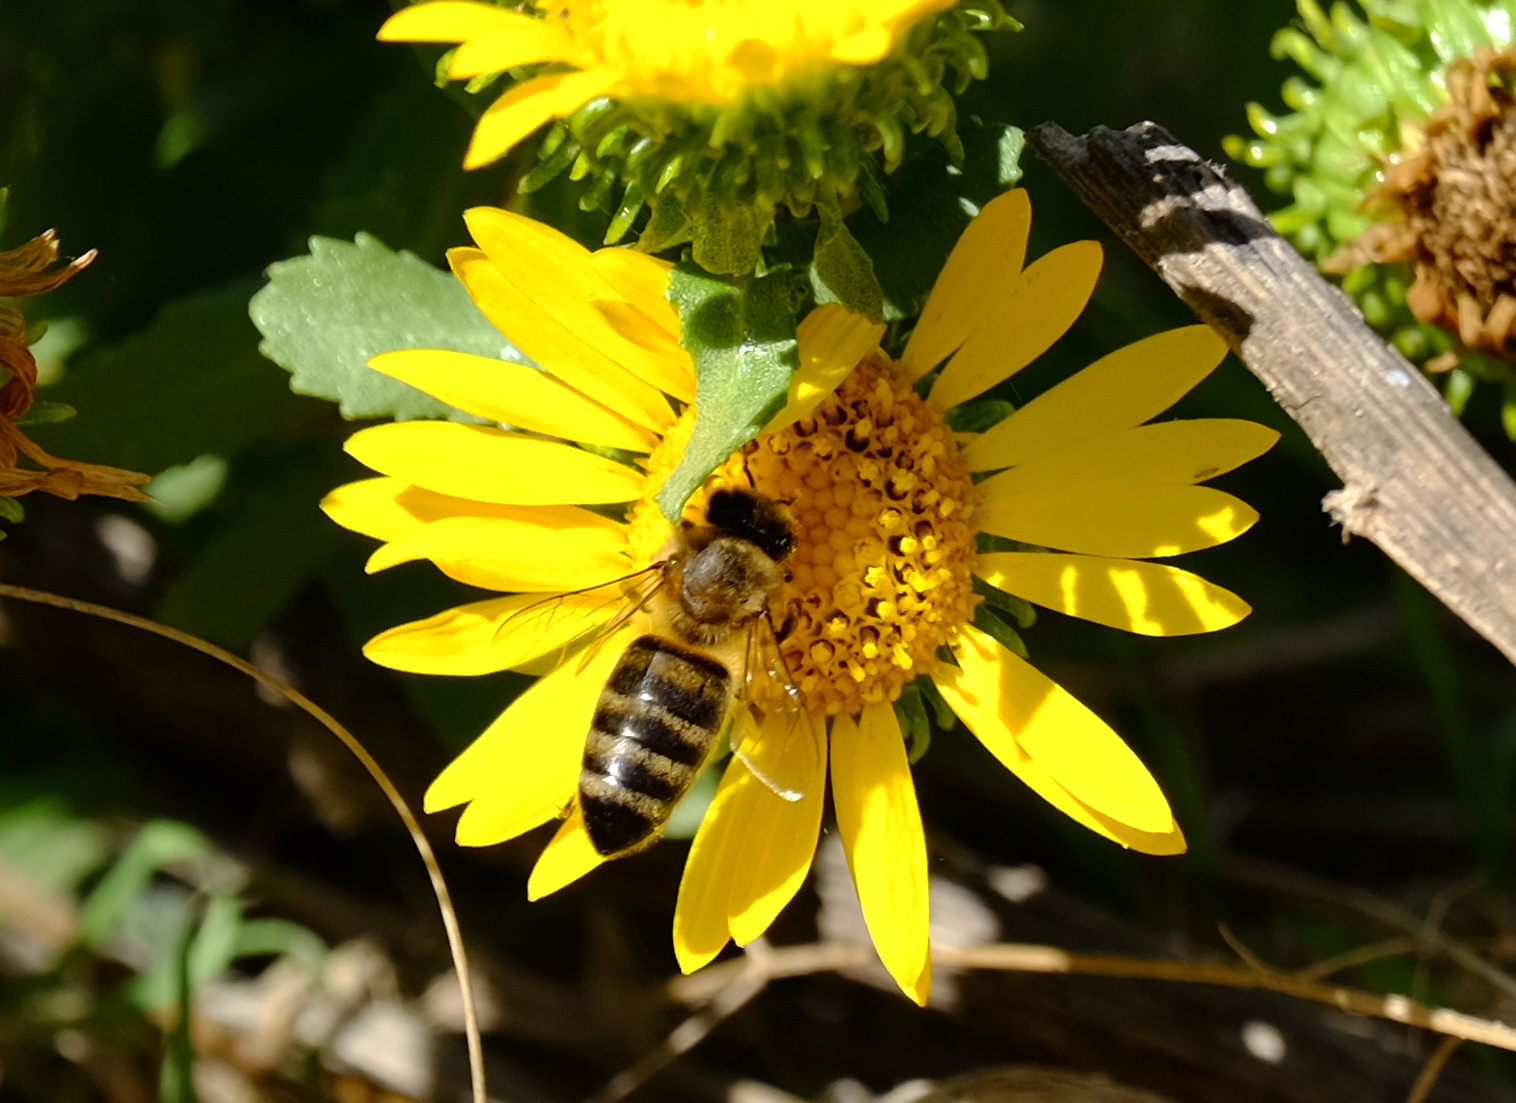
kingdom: Animalia
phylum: Arthropoda
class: Insecta
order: Hymenoptera
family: Apidae
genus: Apis
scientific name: Apis mellifera
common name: Honey bee
